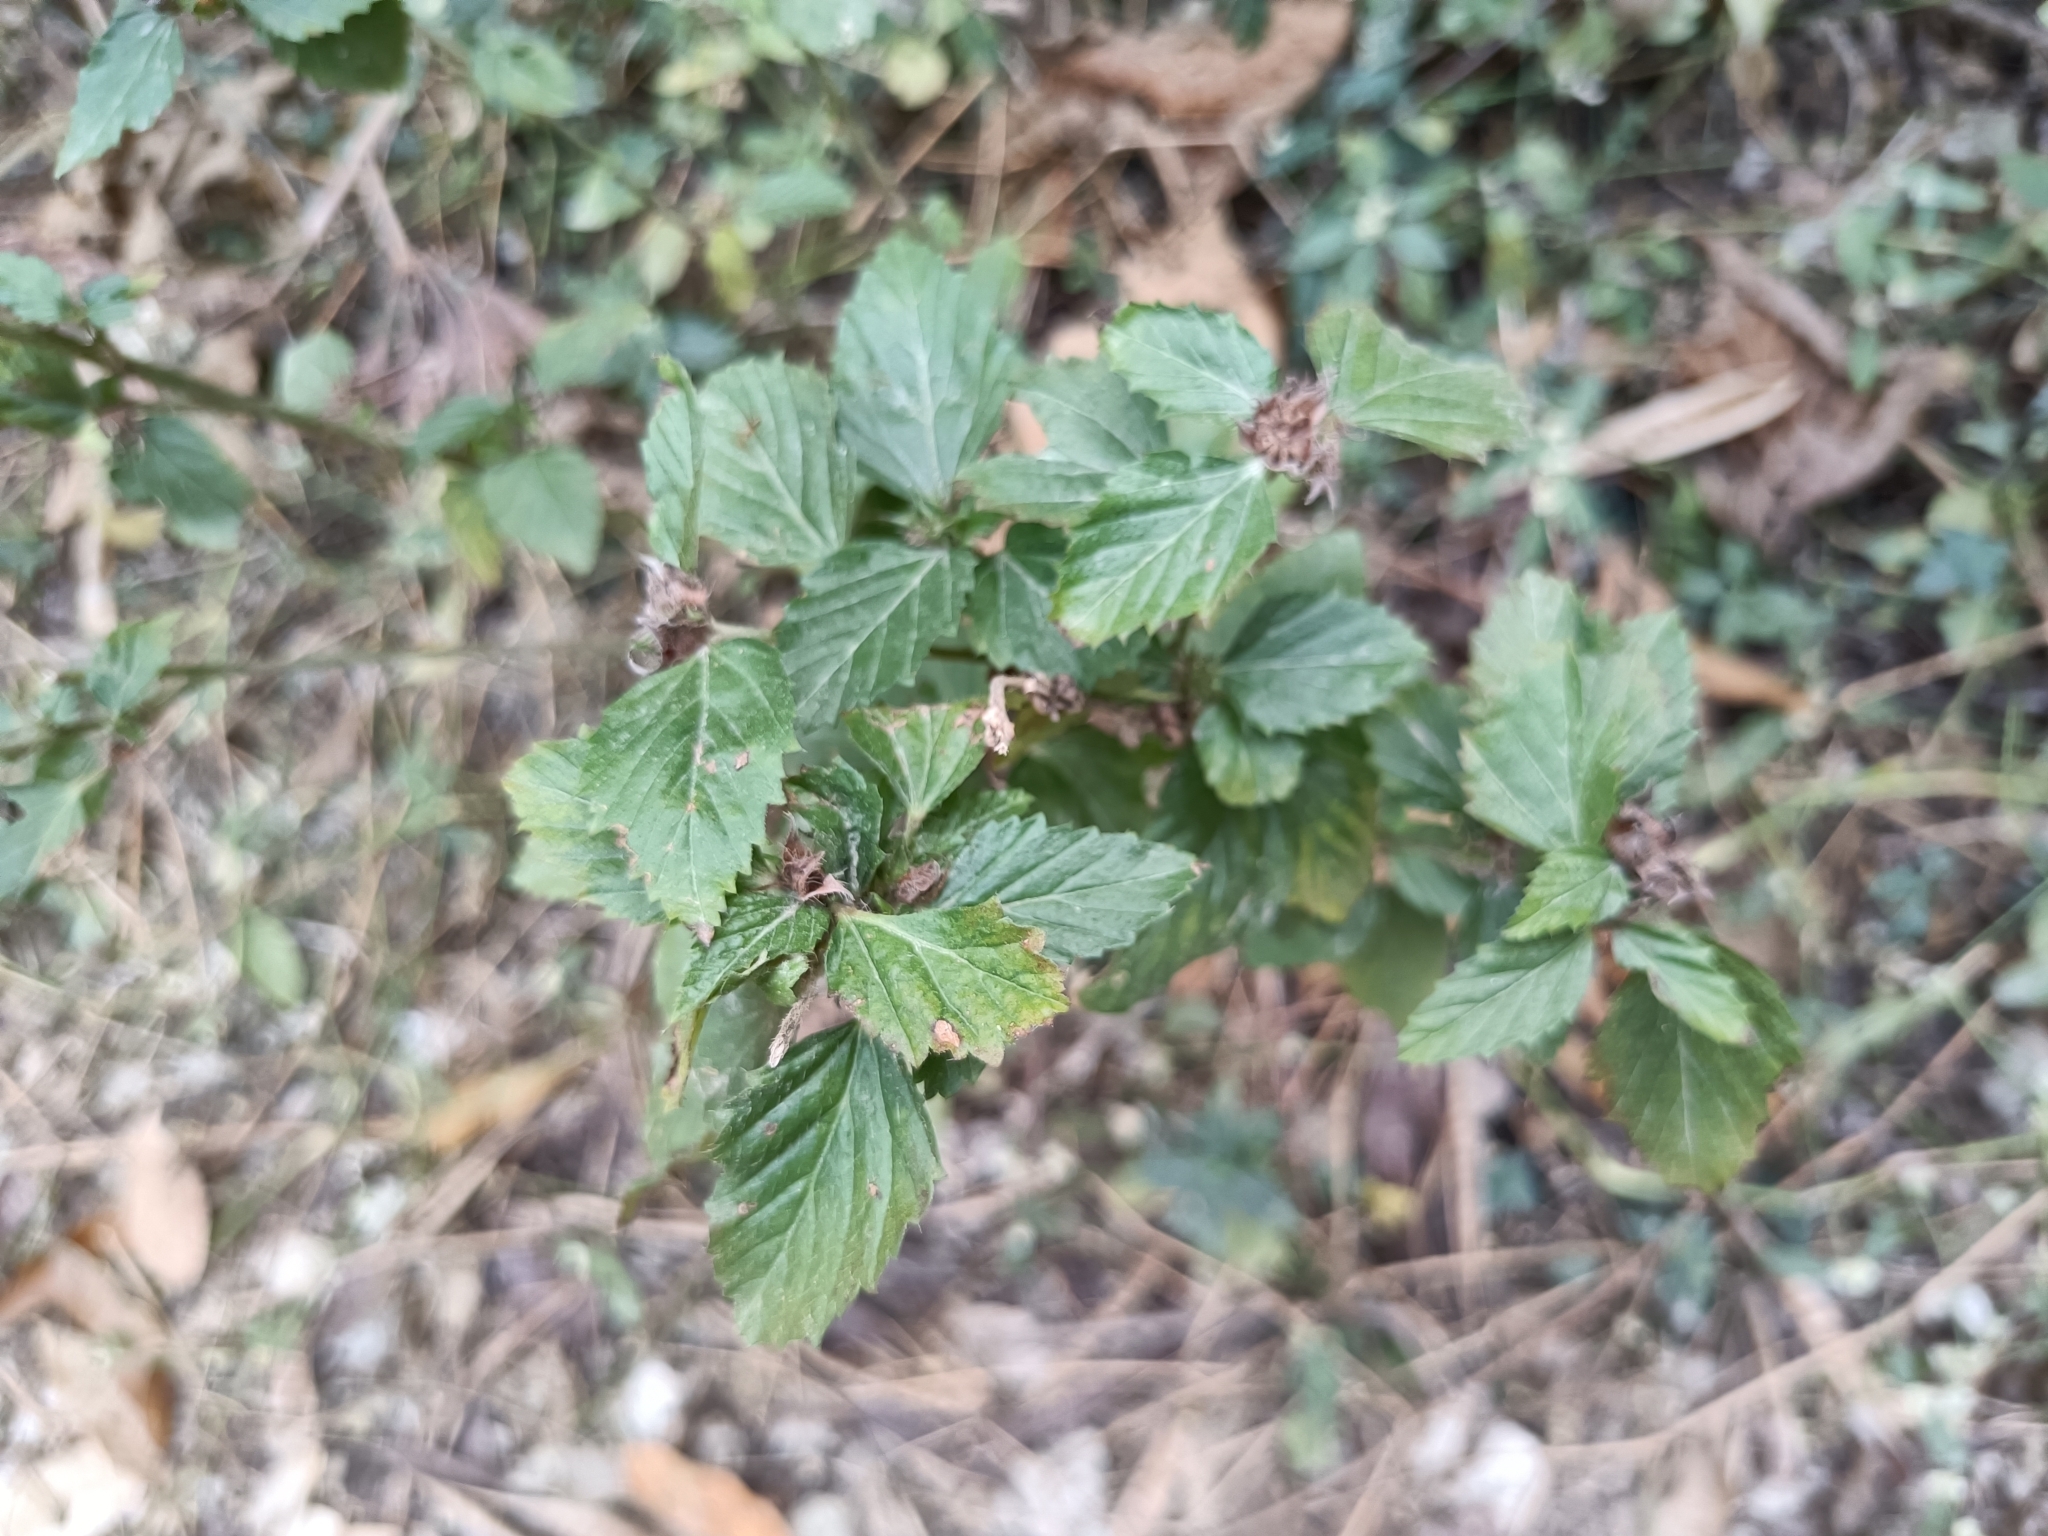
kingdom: Plantae
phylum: Tracheophyta
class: Magnoliopsida
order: Malvales
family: Malvaceae
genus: Malvastrum
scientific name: Malvastrum coromandelianum
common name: Threelobe false mallow
